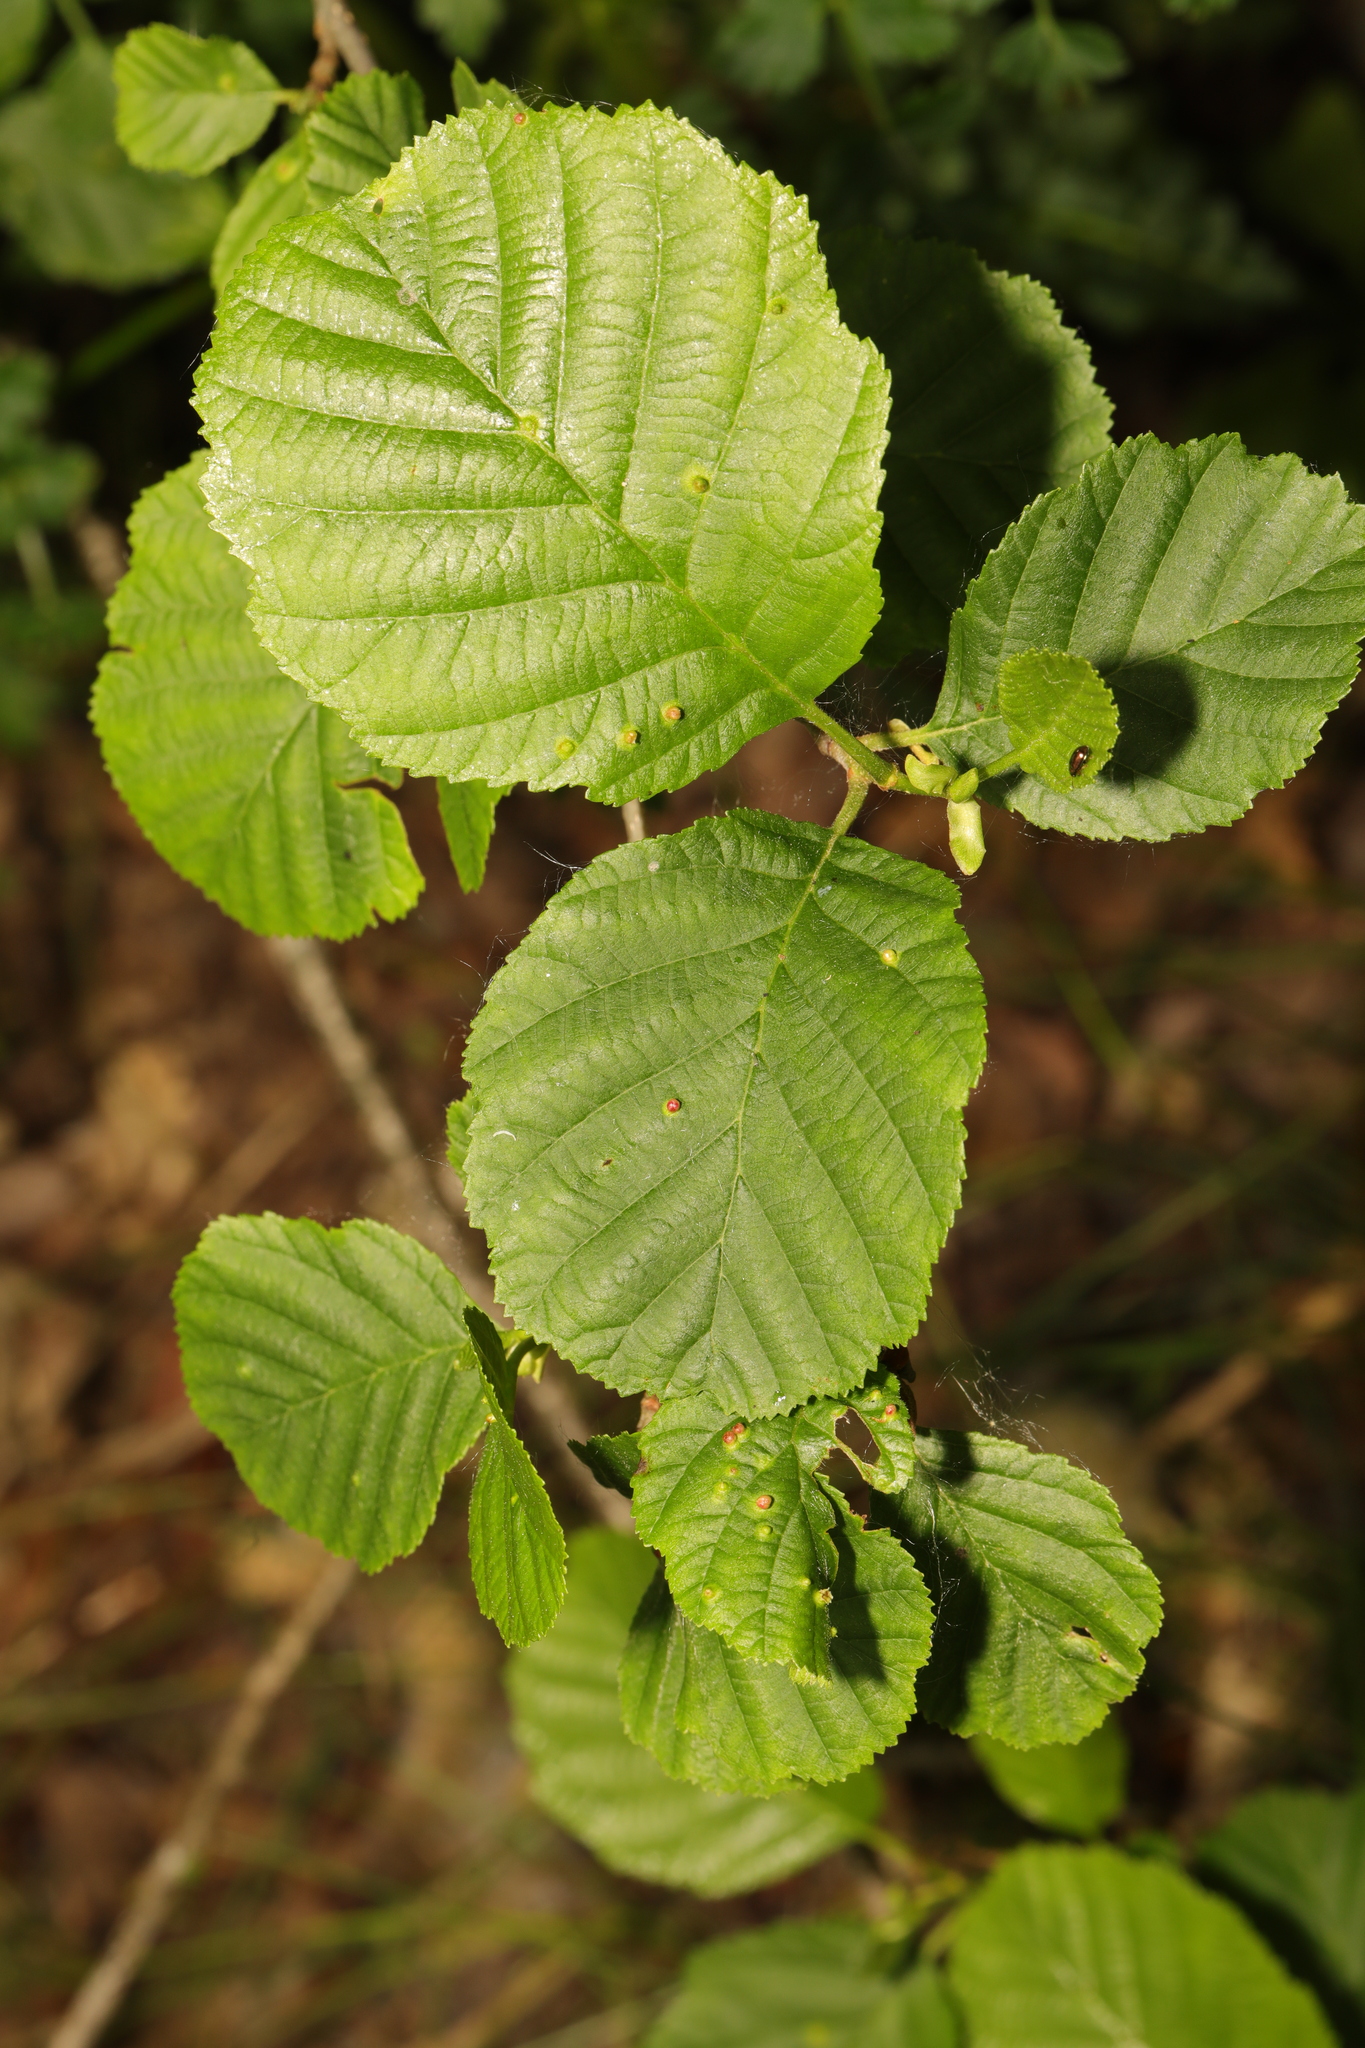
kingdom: Plantae
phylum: Tracheophyta
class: Magnoliopsida
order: Fagales
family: Betulaceae
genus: Alnus
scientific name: Alnus glutinosa
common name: Black alder
